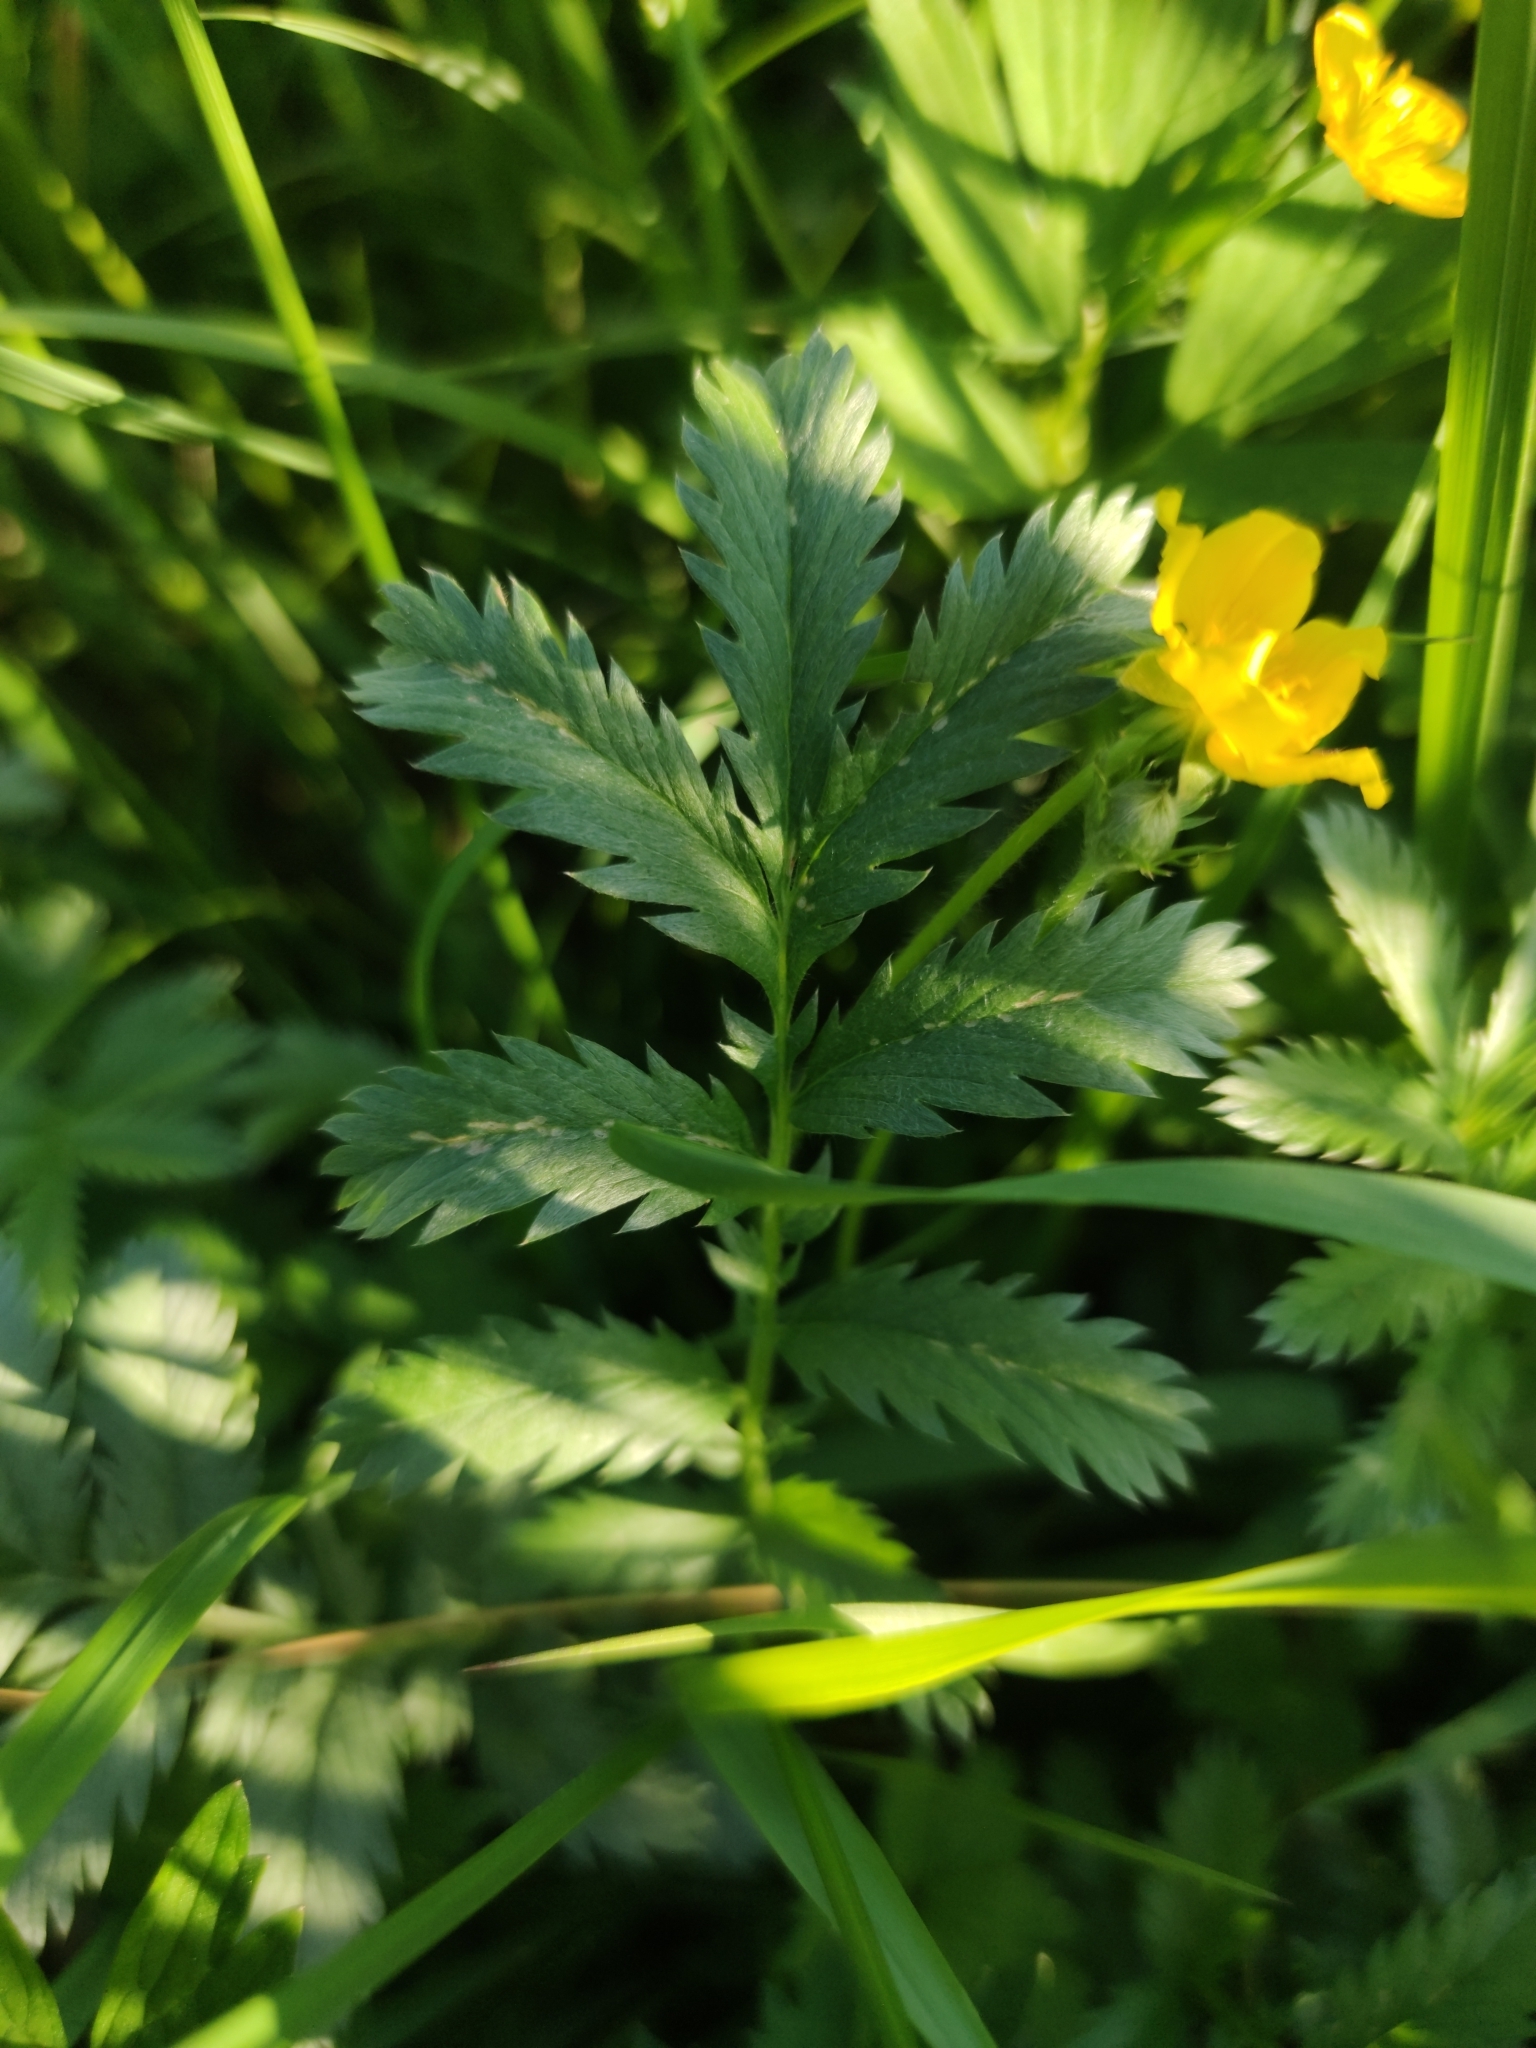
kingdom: Plantae
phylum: Tracheophyta
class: Magnoliopsida
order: Rosales
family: Rosaceae
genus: Argentina
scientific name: Argentina anserina
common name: Common silverweed
